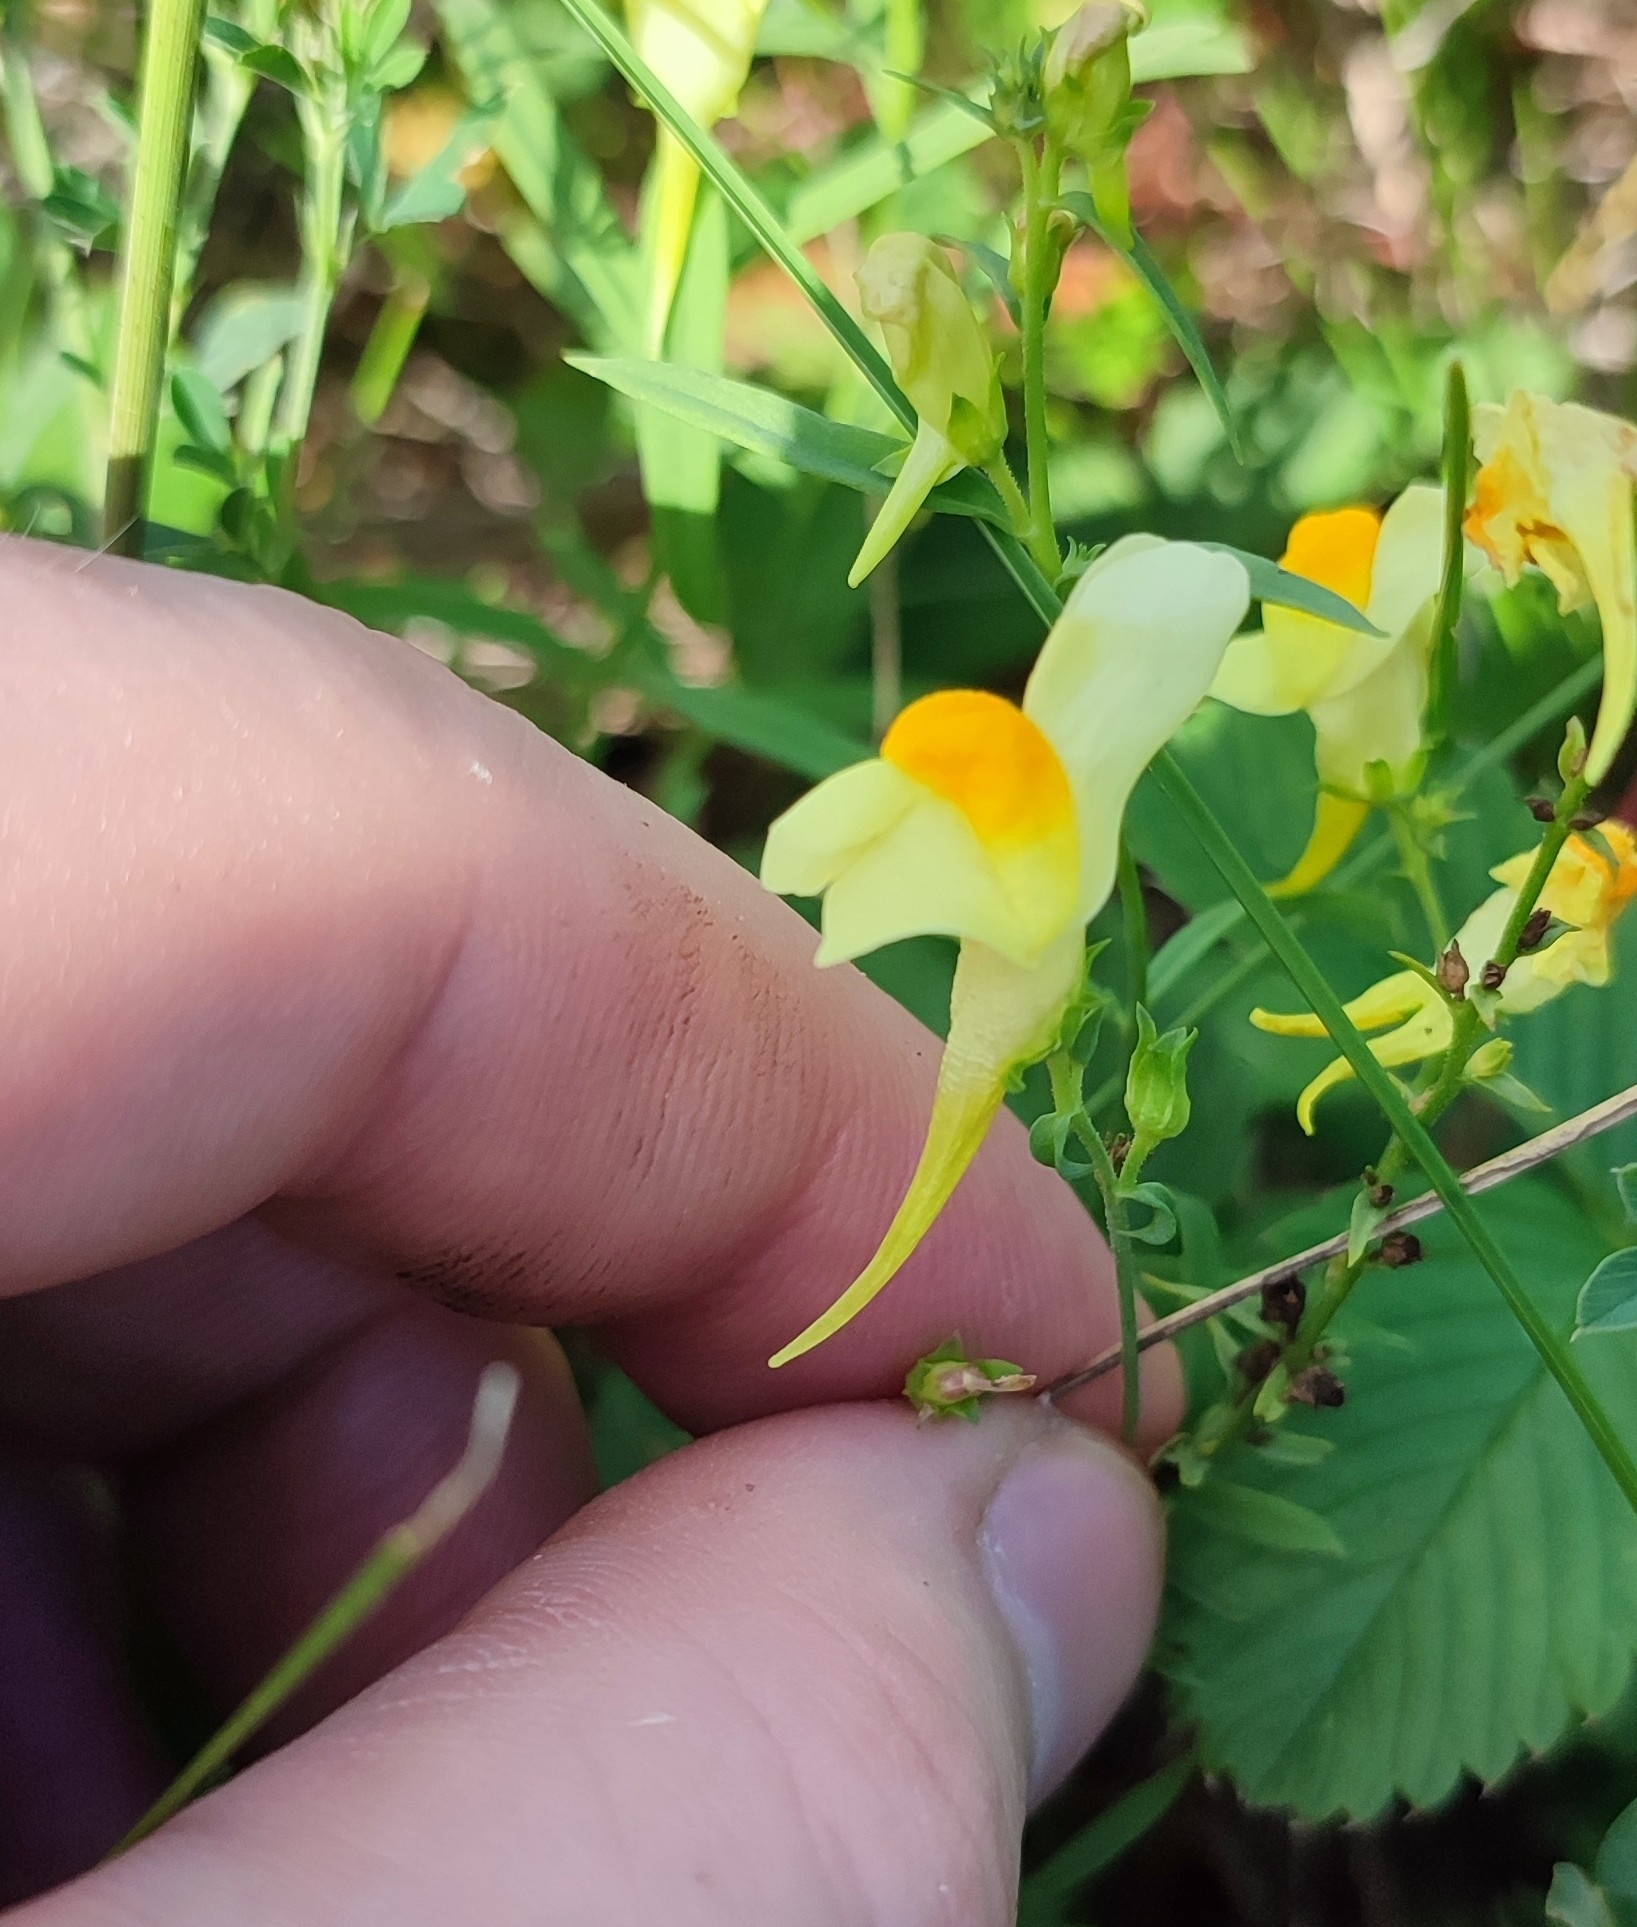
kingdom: Plantae
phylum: Tracheophyta
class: Magnoliopsida
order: Lamiales
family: Plantaginaceae
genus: Linaria
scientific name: Linaria vulgaris
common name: Butter and eggs
